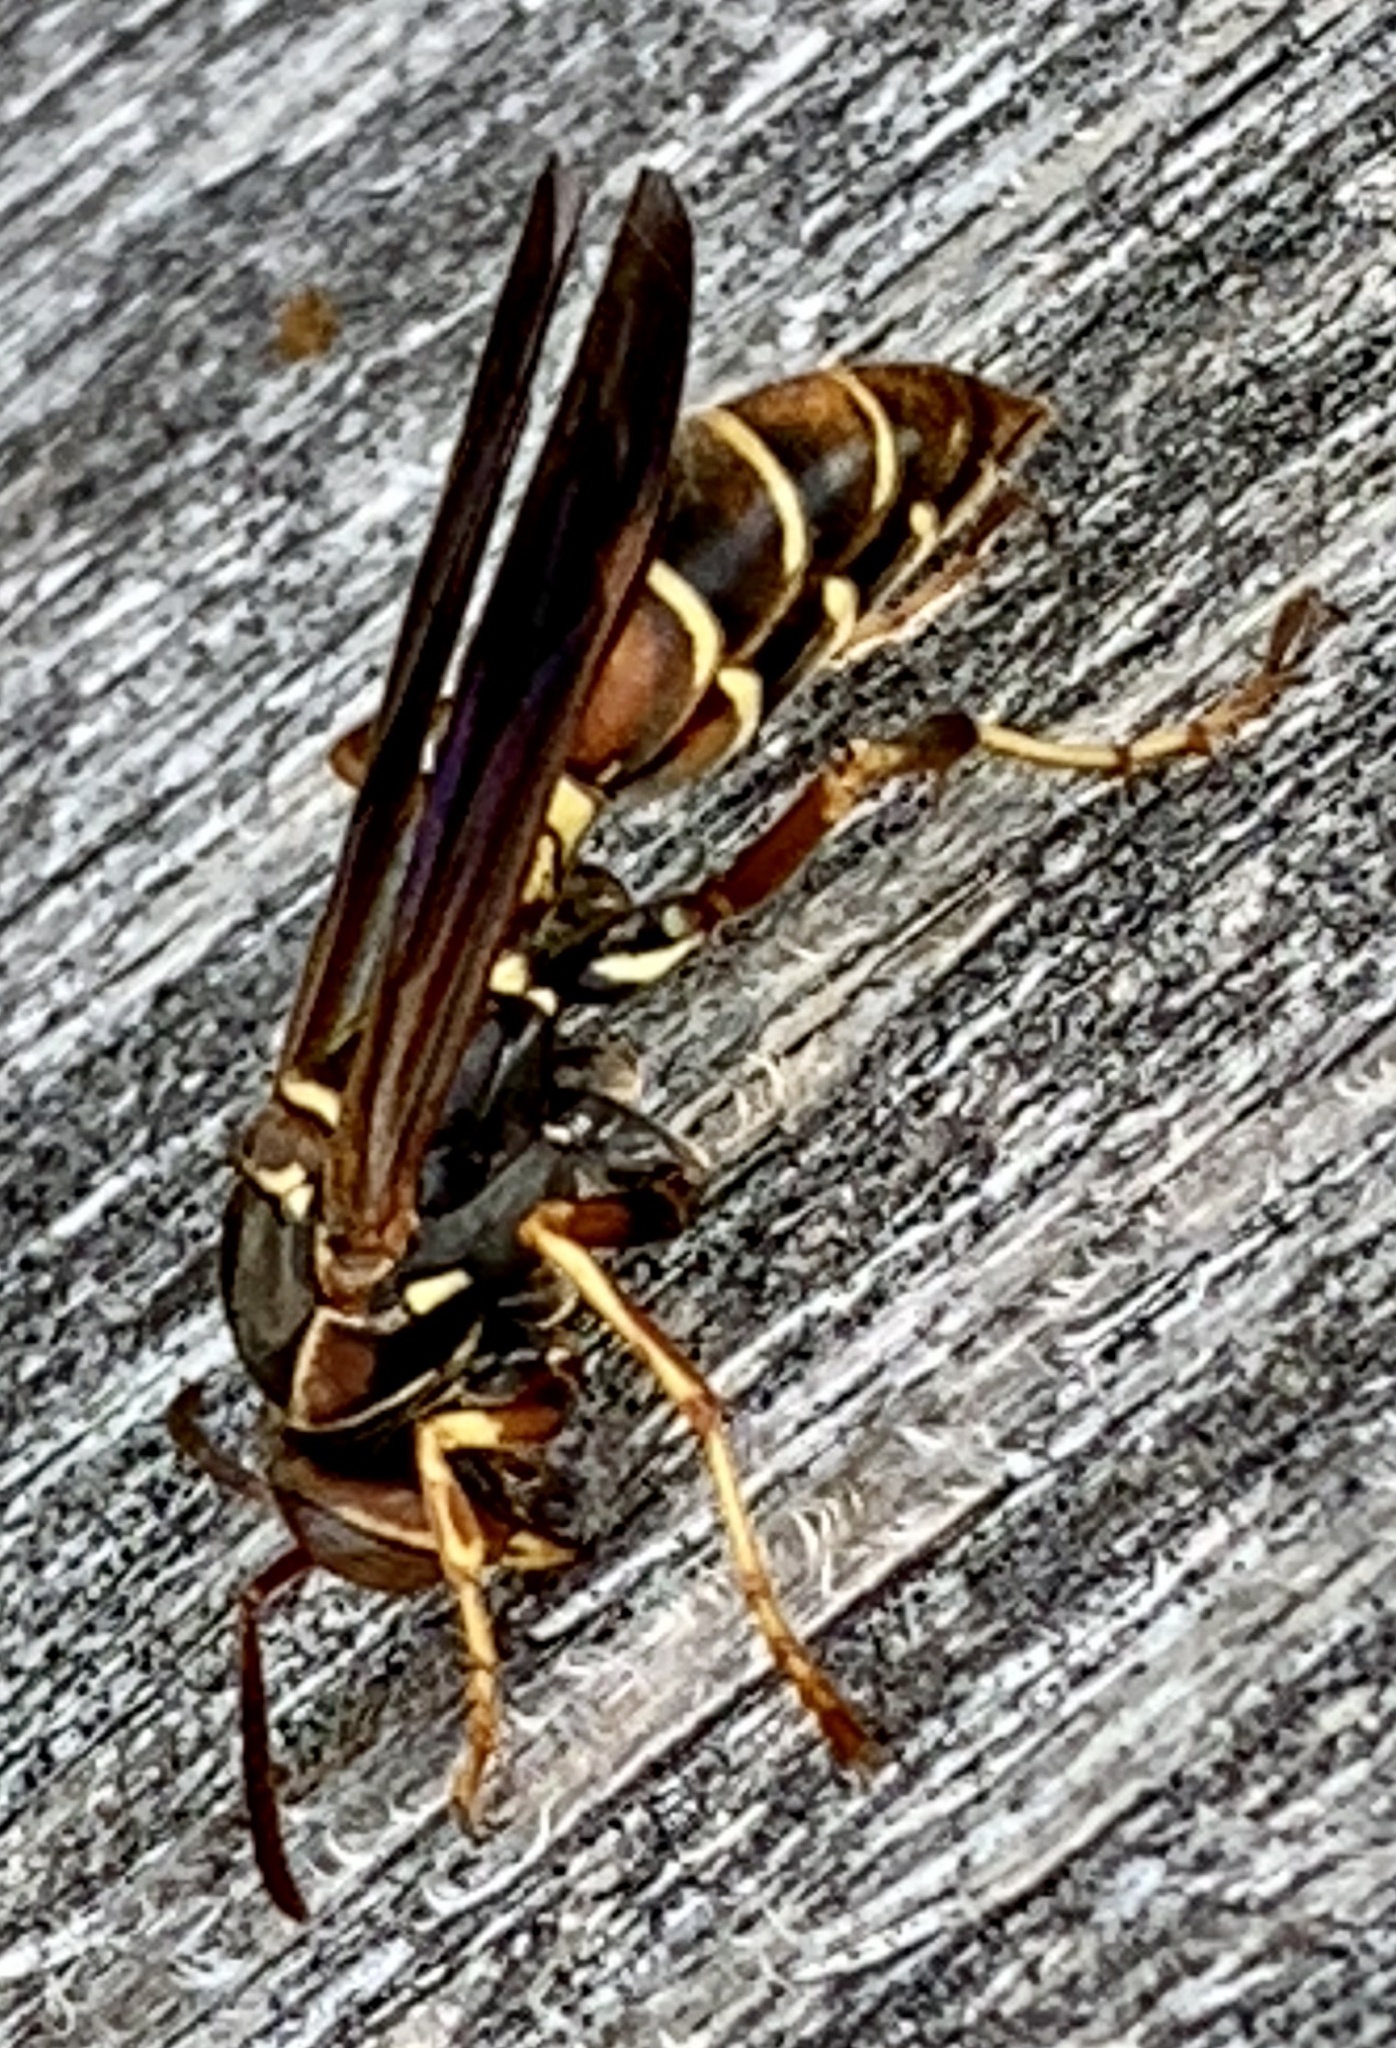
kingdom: Animalia
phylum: Arthropoda
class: Insecta
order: Hymenoptera
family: Eumenidae
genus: Polistes
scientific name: Polistes fuscatus
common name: Dark paper wasp
